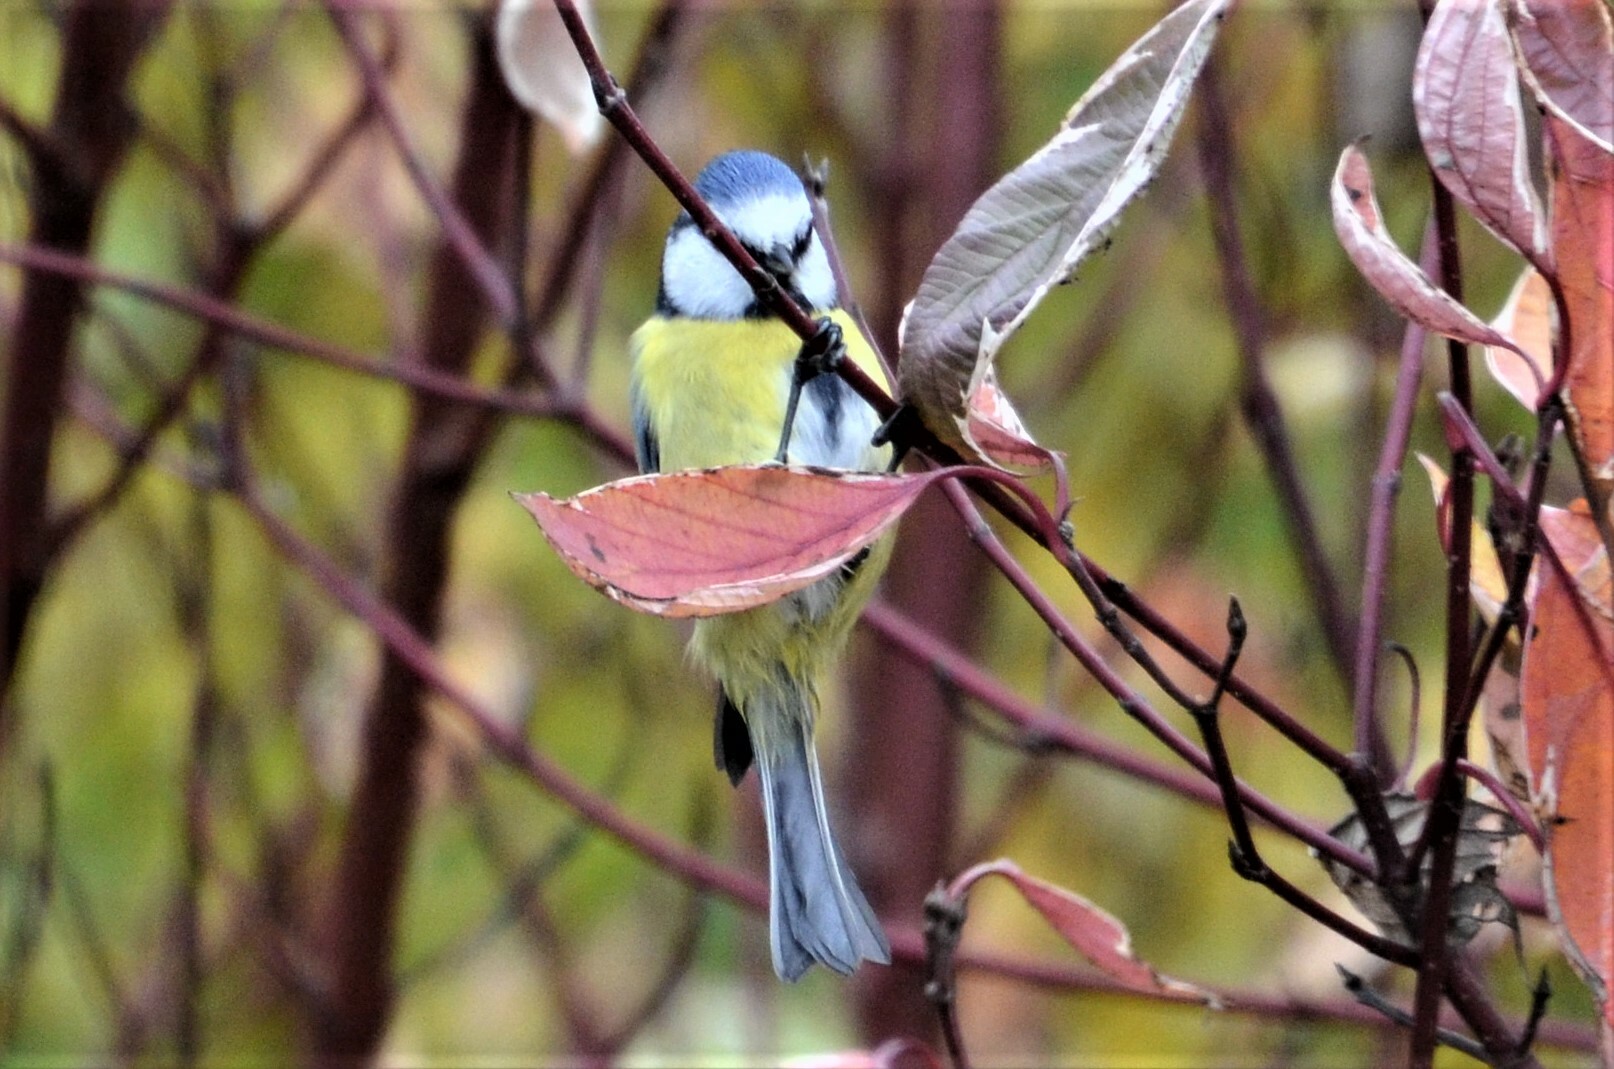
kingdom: Animalia
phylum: Chordata
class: Aves
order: Passeriformes
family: Paridae
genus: Cyanistes
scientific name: Cyanistes caeruleus
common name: Eurasian blue tit
